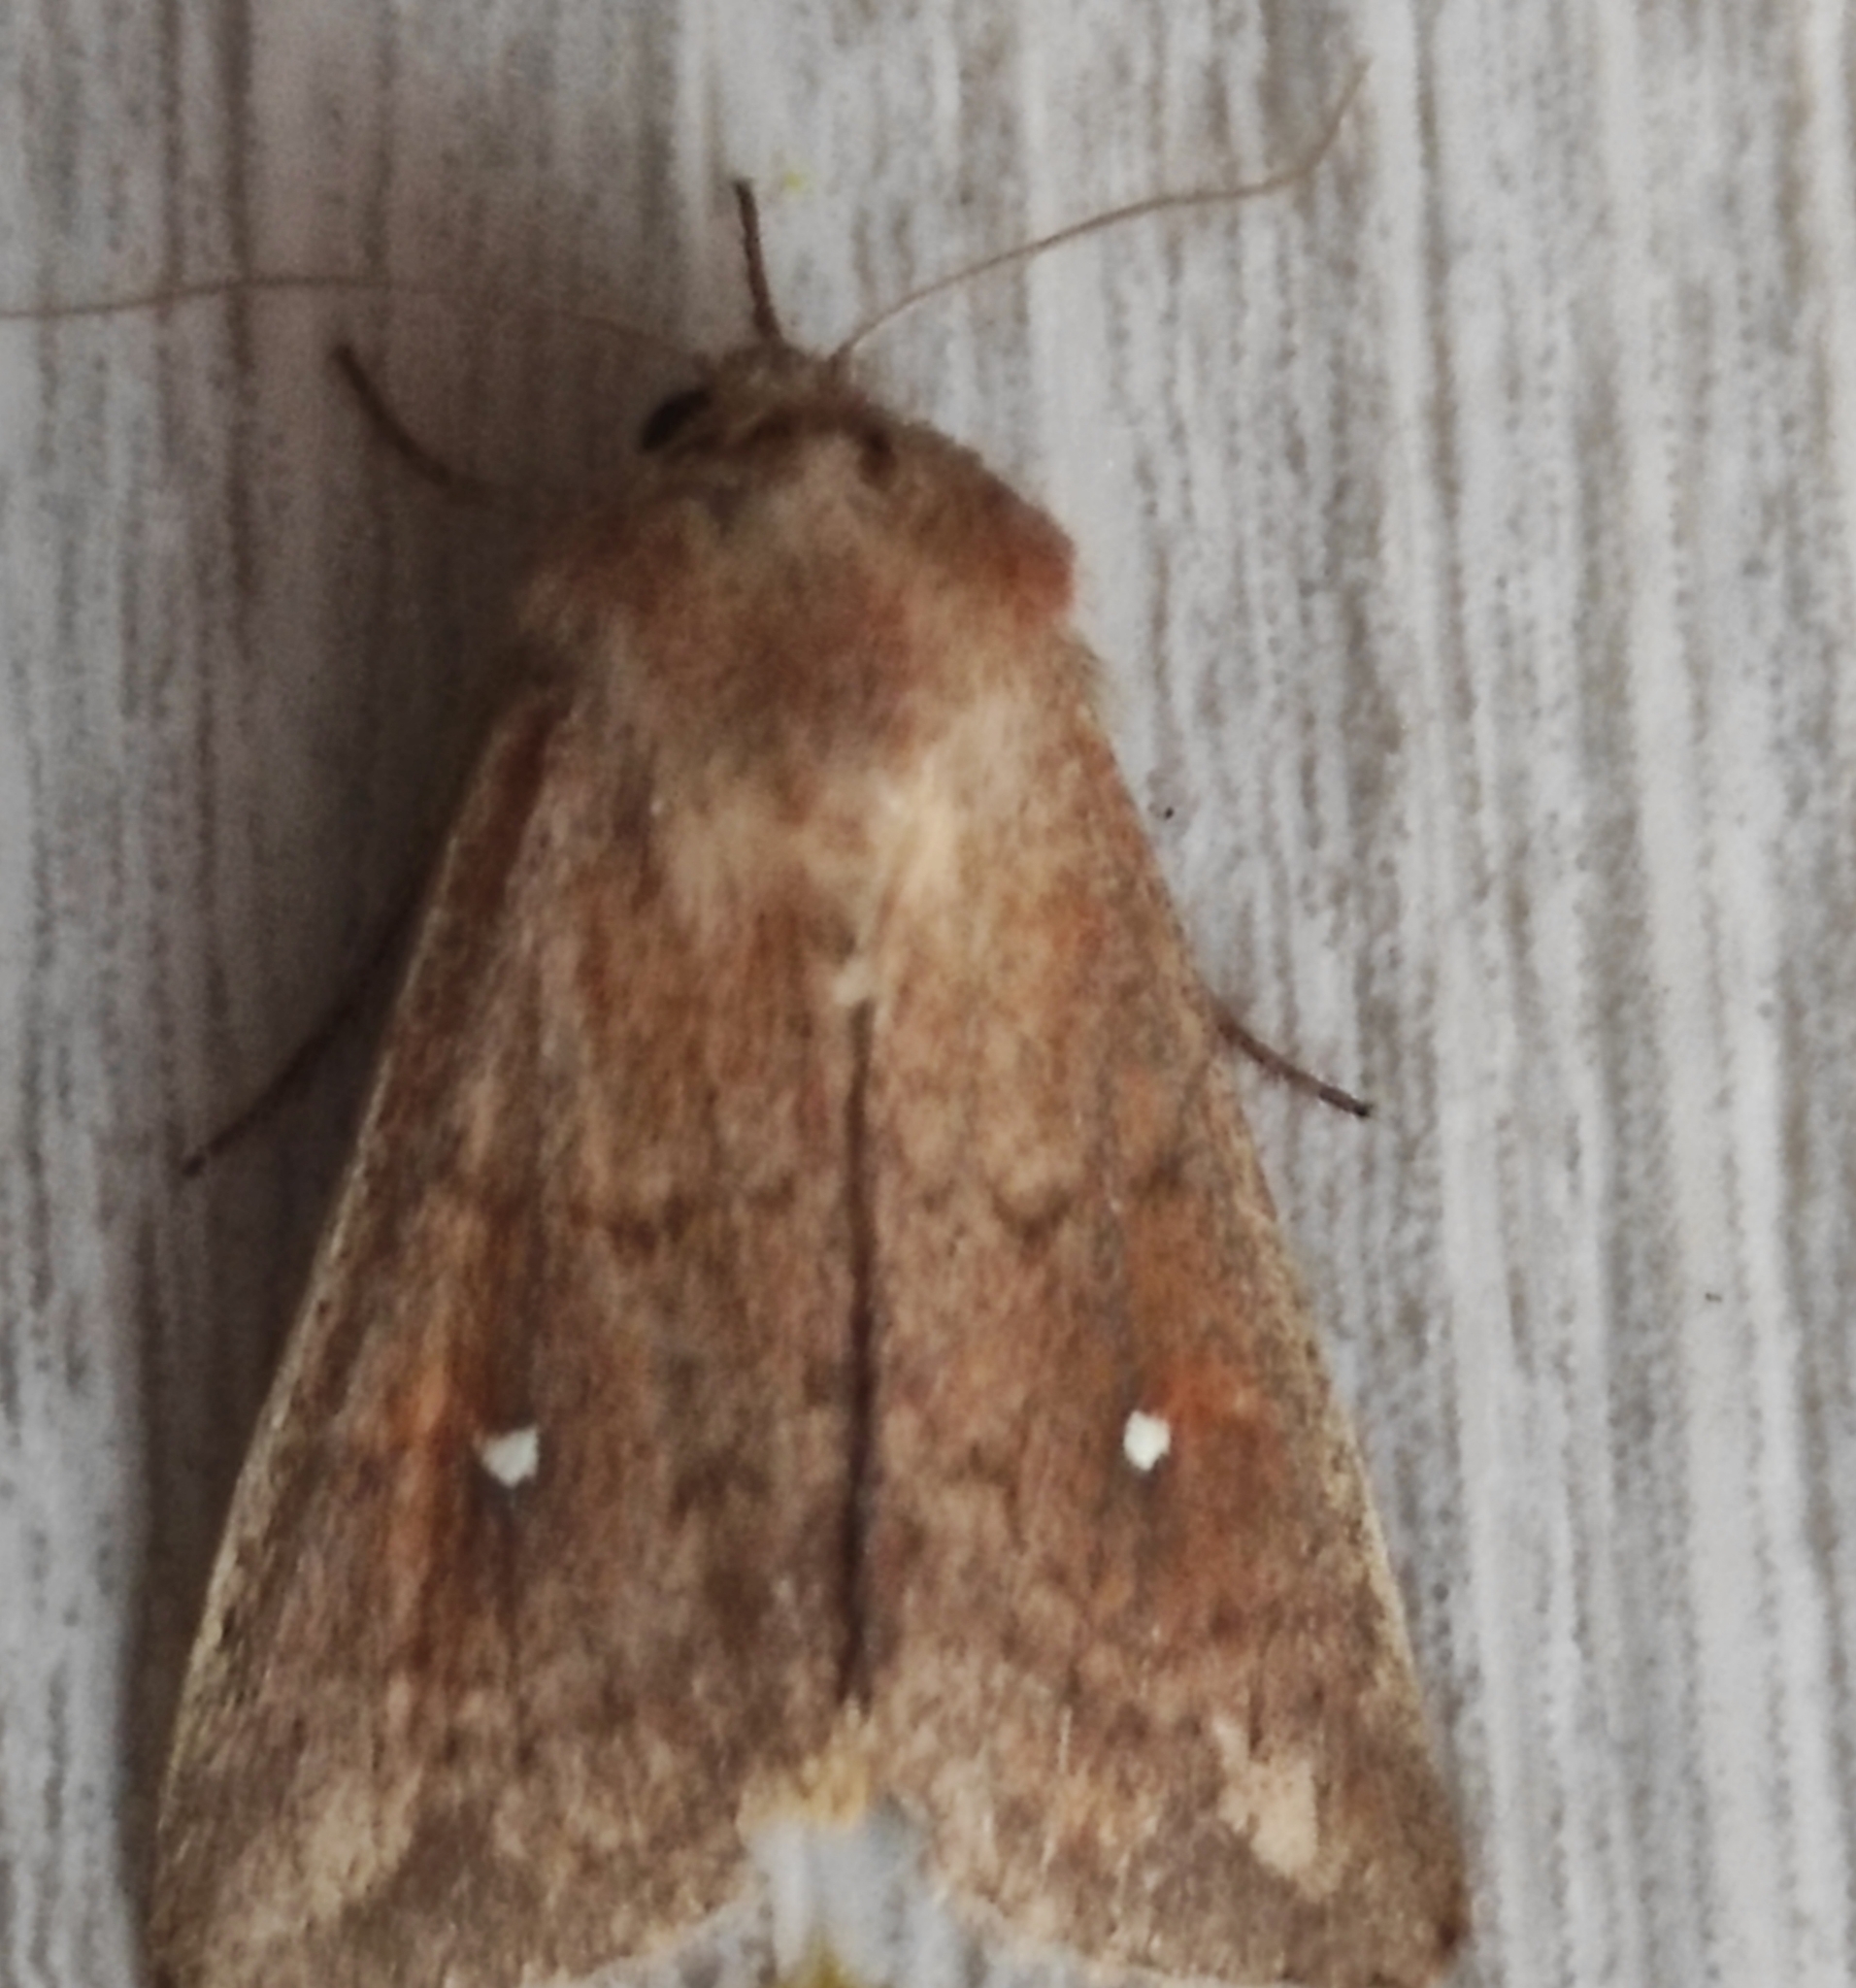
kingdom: Animalia
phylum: Arthropoda
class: Insecta
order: Lepidoptera
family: Noctuidae
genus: Mythimna
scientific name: Mythimna albipuncta
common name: White-point
